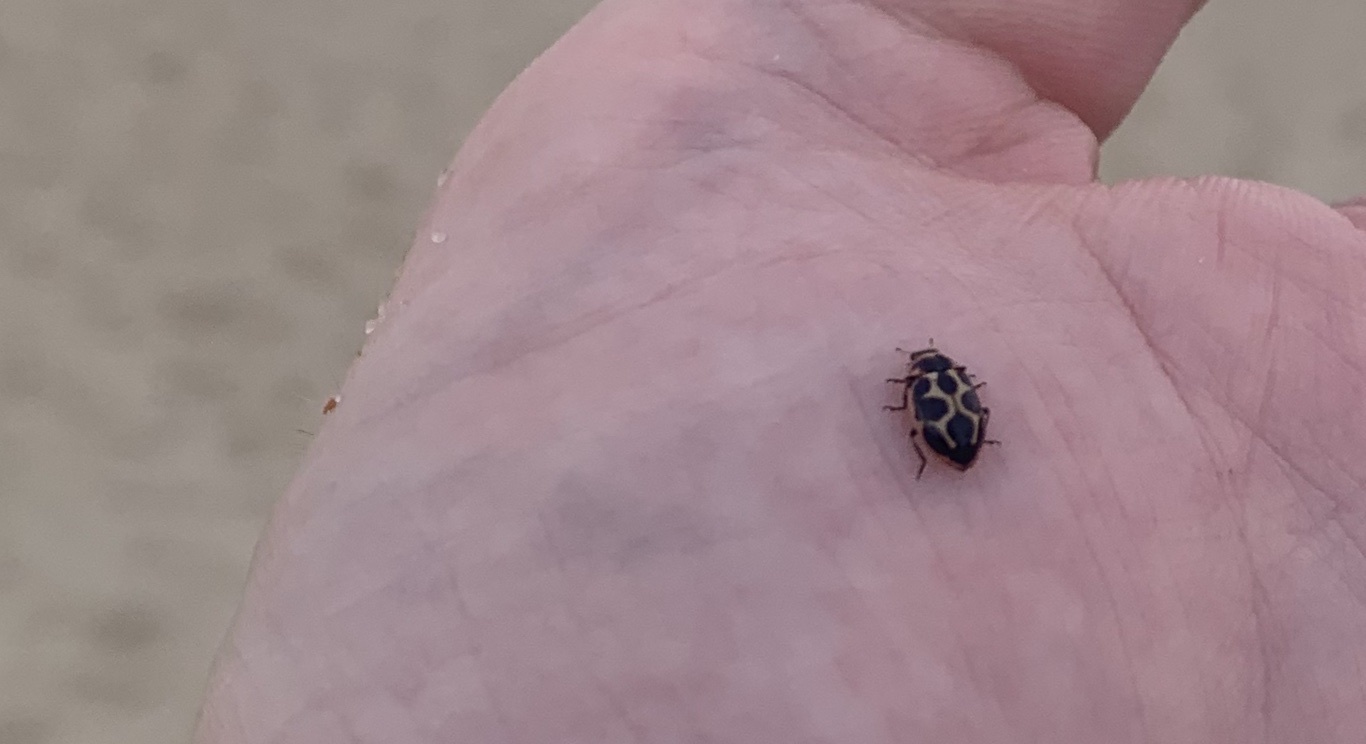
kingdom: Animalia
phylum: Arthropoda
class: Insecta
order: Coleoptera
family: Coccinellidae
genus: Naemia
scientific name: Naemia seriata
